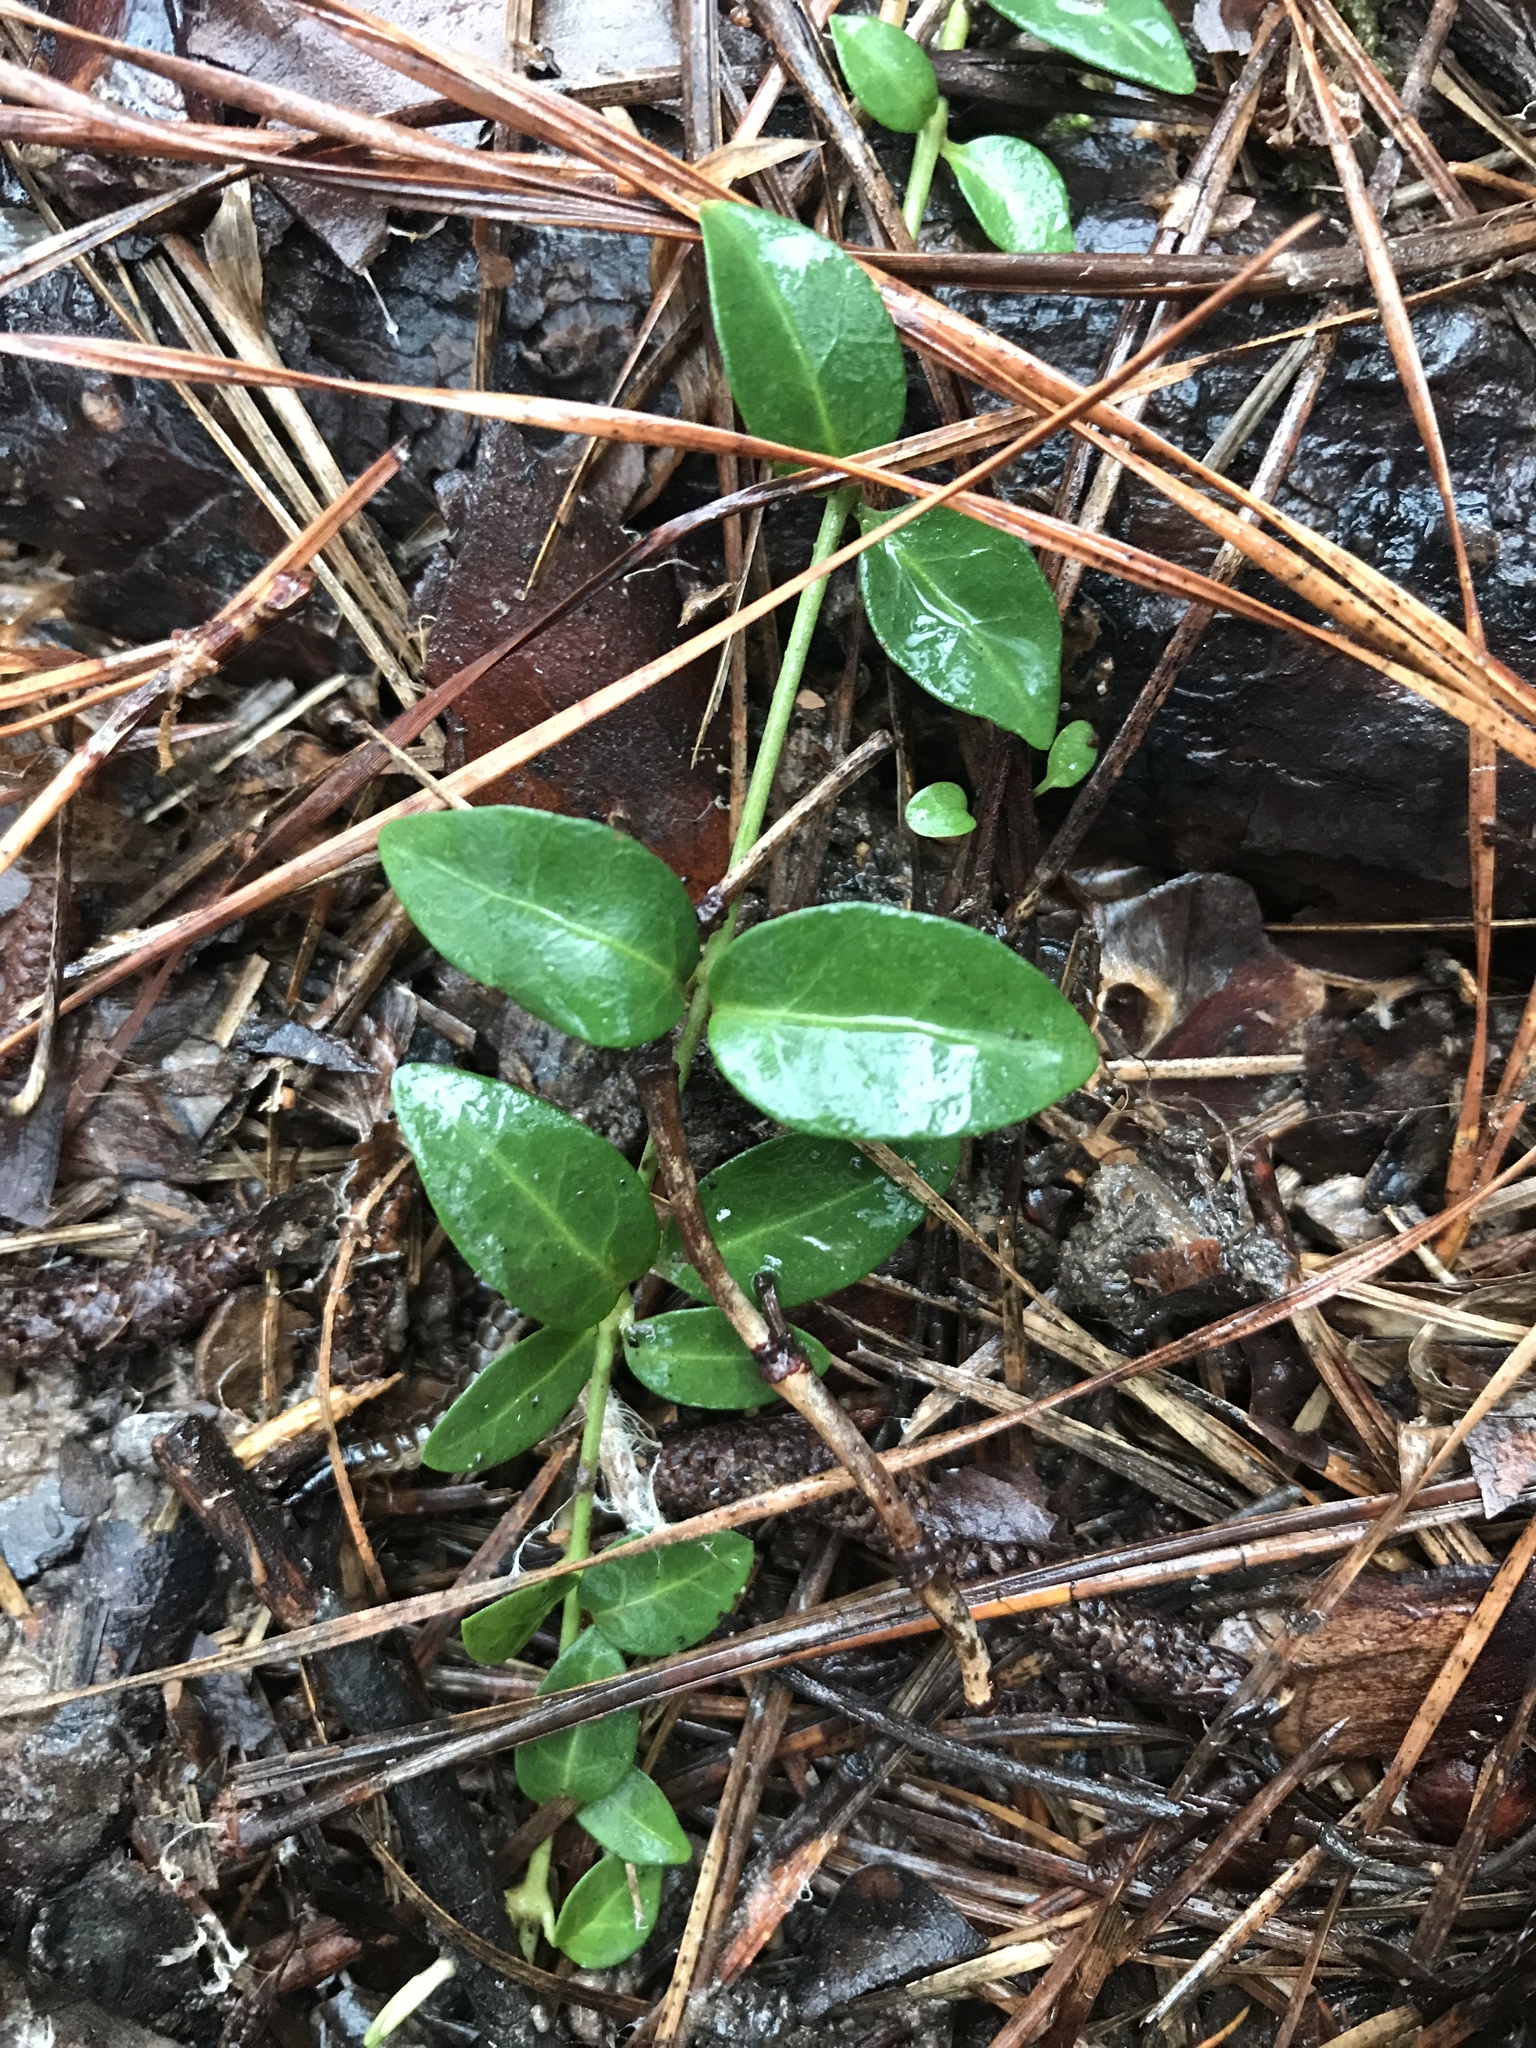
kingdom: Plantae
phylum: Tracheophyta
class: Magnoliopsida
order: Gentianales
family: Apocynaceae
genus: Vinca
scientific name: Vinca minor
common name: Lesser periwinkle
